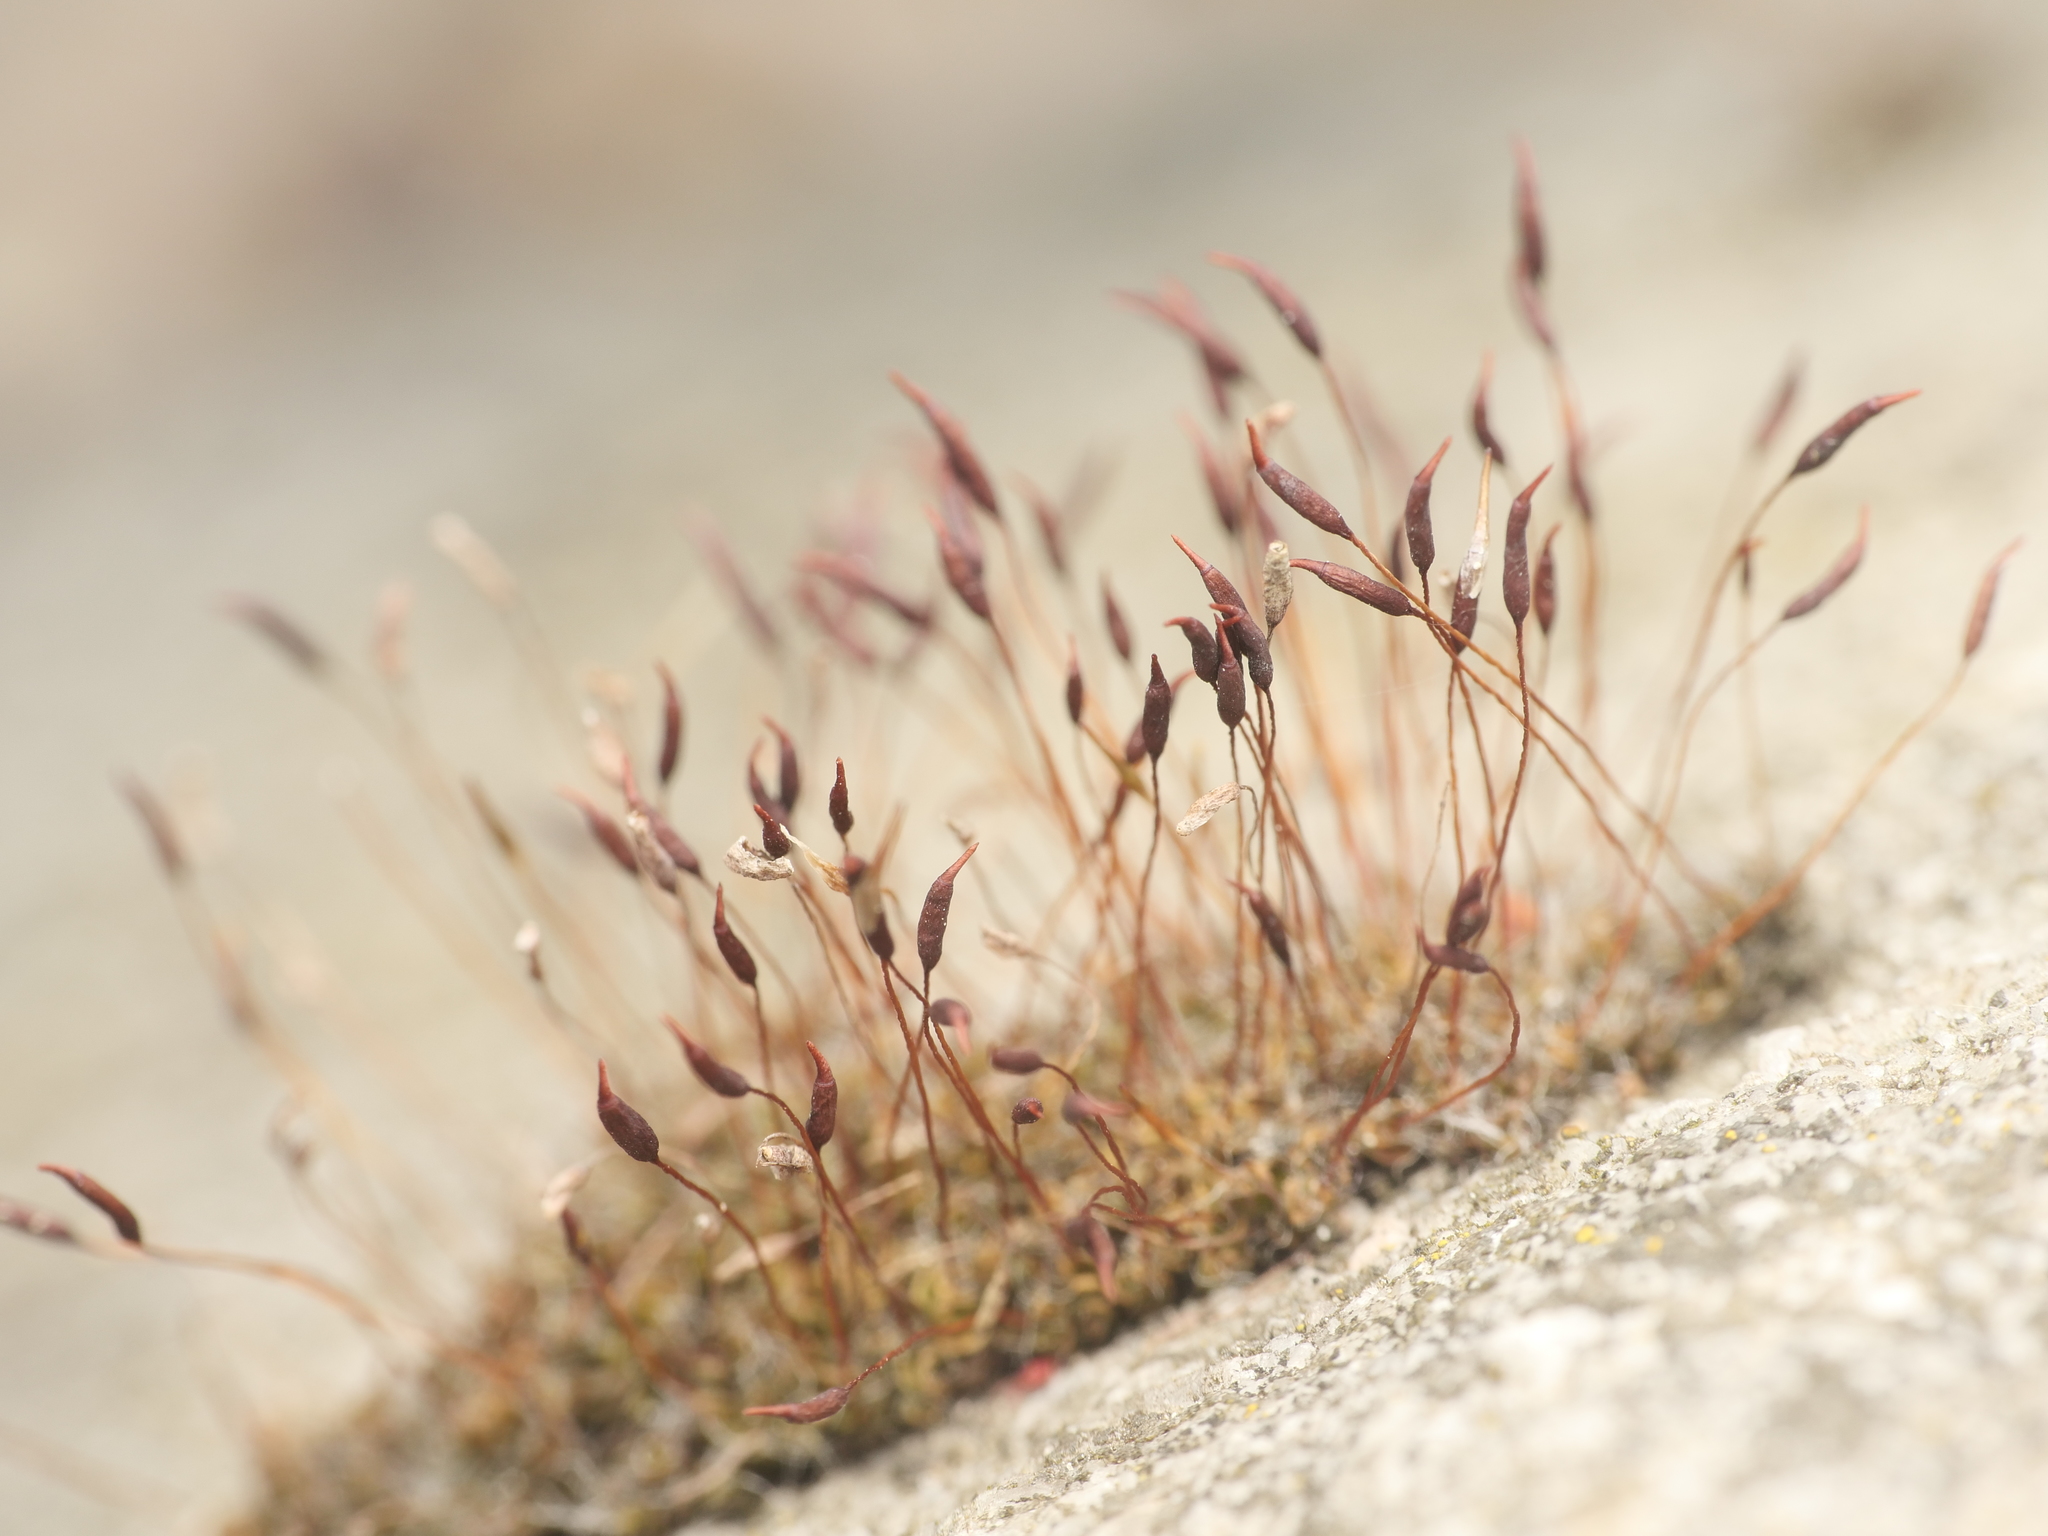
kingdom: Plantae
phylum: Bryophyta
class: Bryopsida
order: Pottiales
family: Pottiaceae
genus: Tortula
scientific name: Tortula muralis
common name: Wall screw-moss
